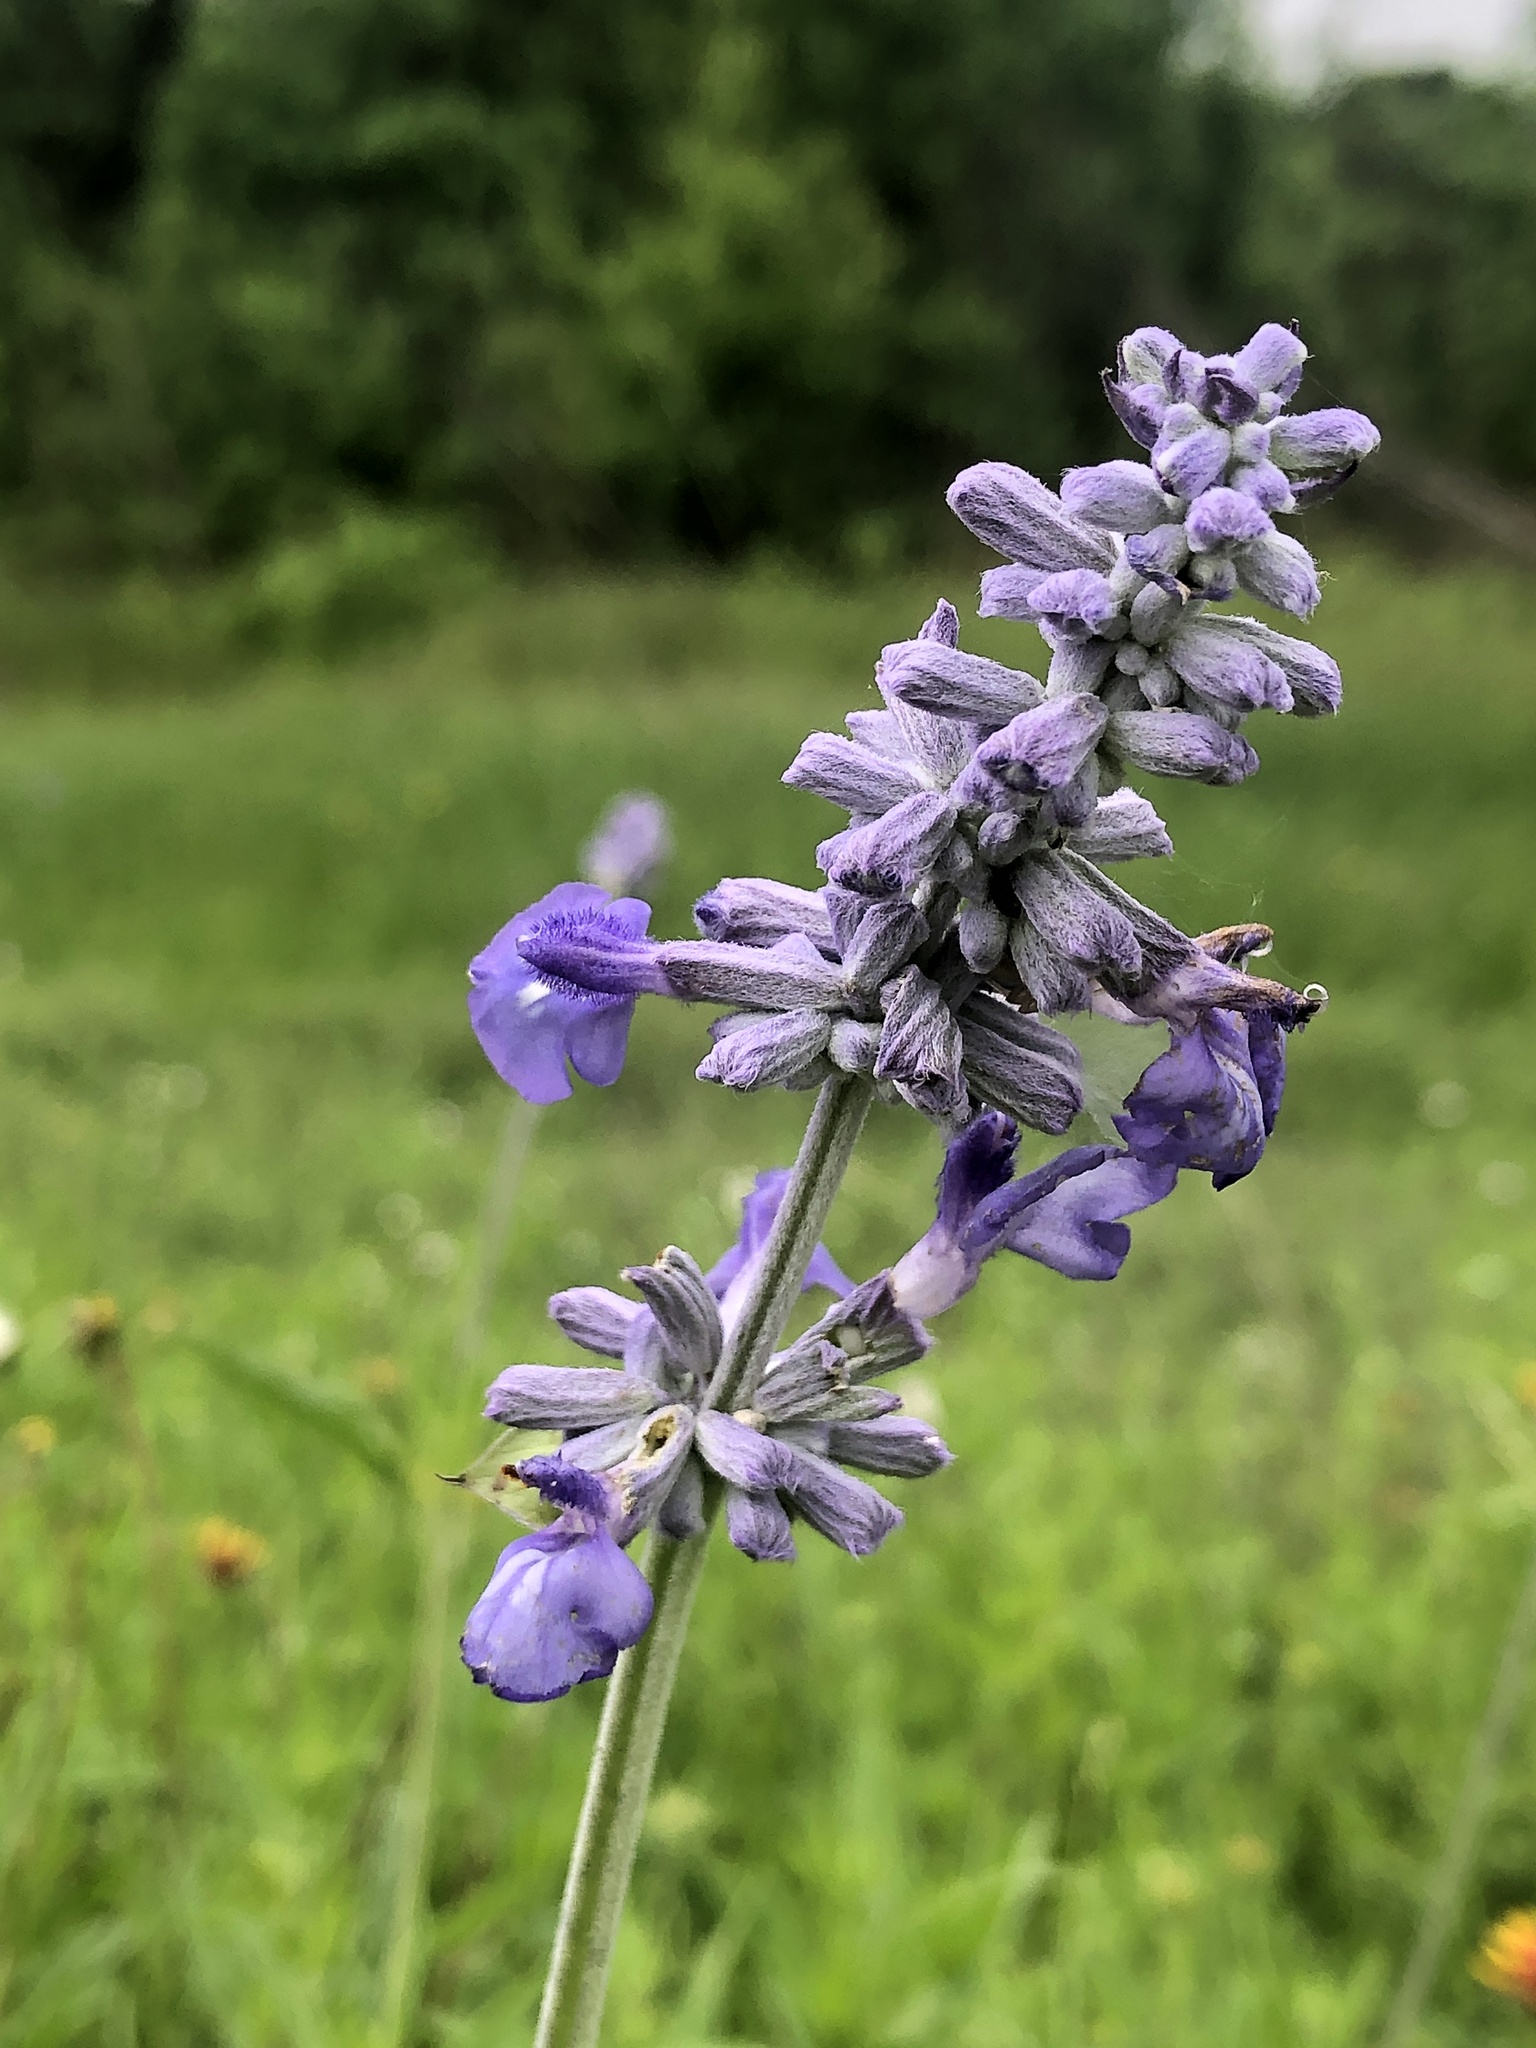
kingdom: Plantae
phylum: Tracheophyta
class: Magnoliopsida
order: Lamiales
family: Lamiaceae
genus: Salvia
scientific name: Salvia farinacea
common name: Mealy sage
